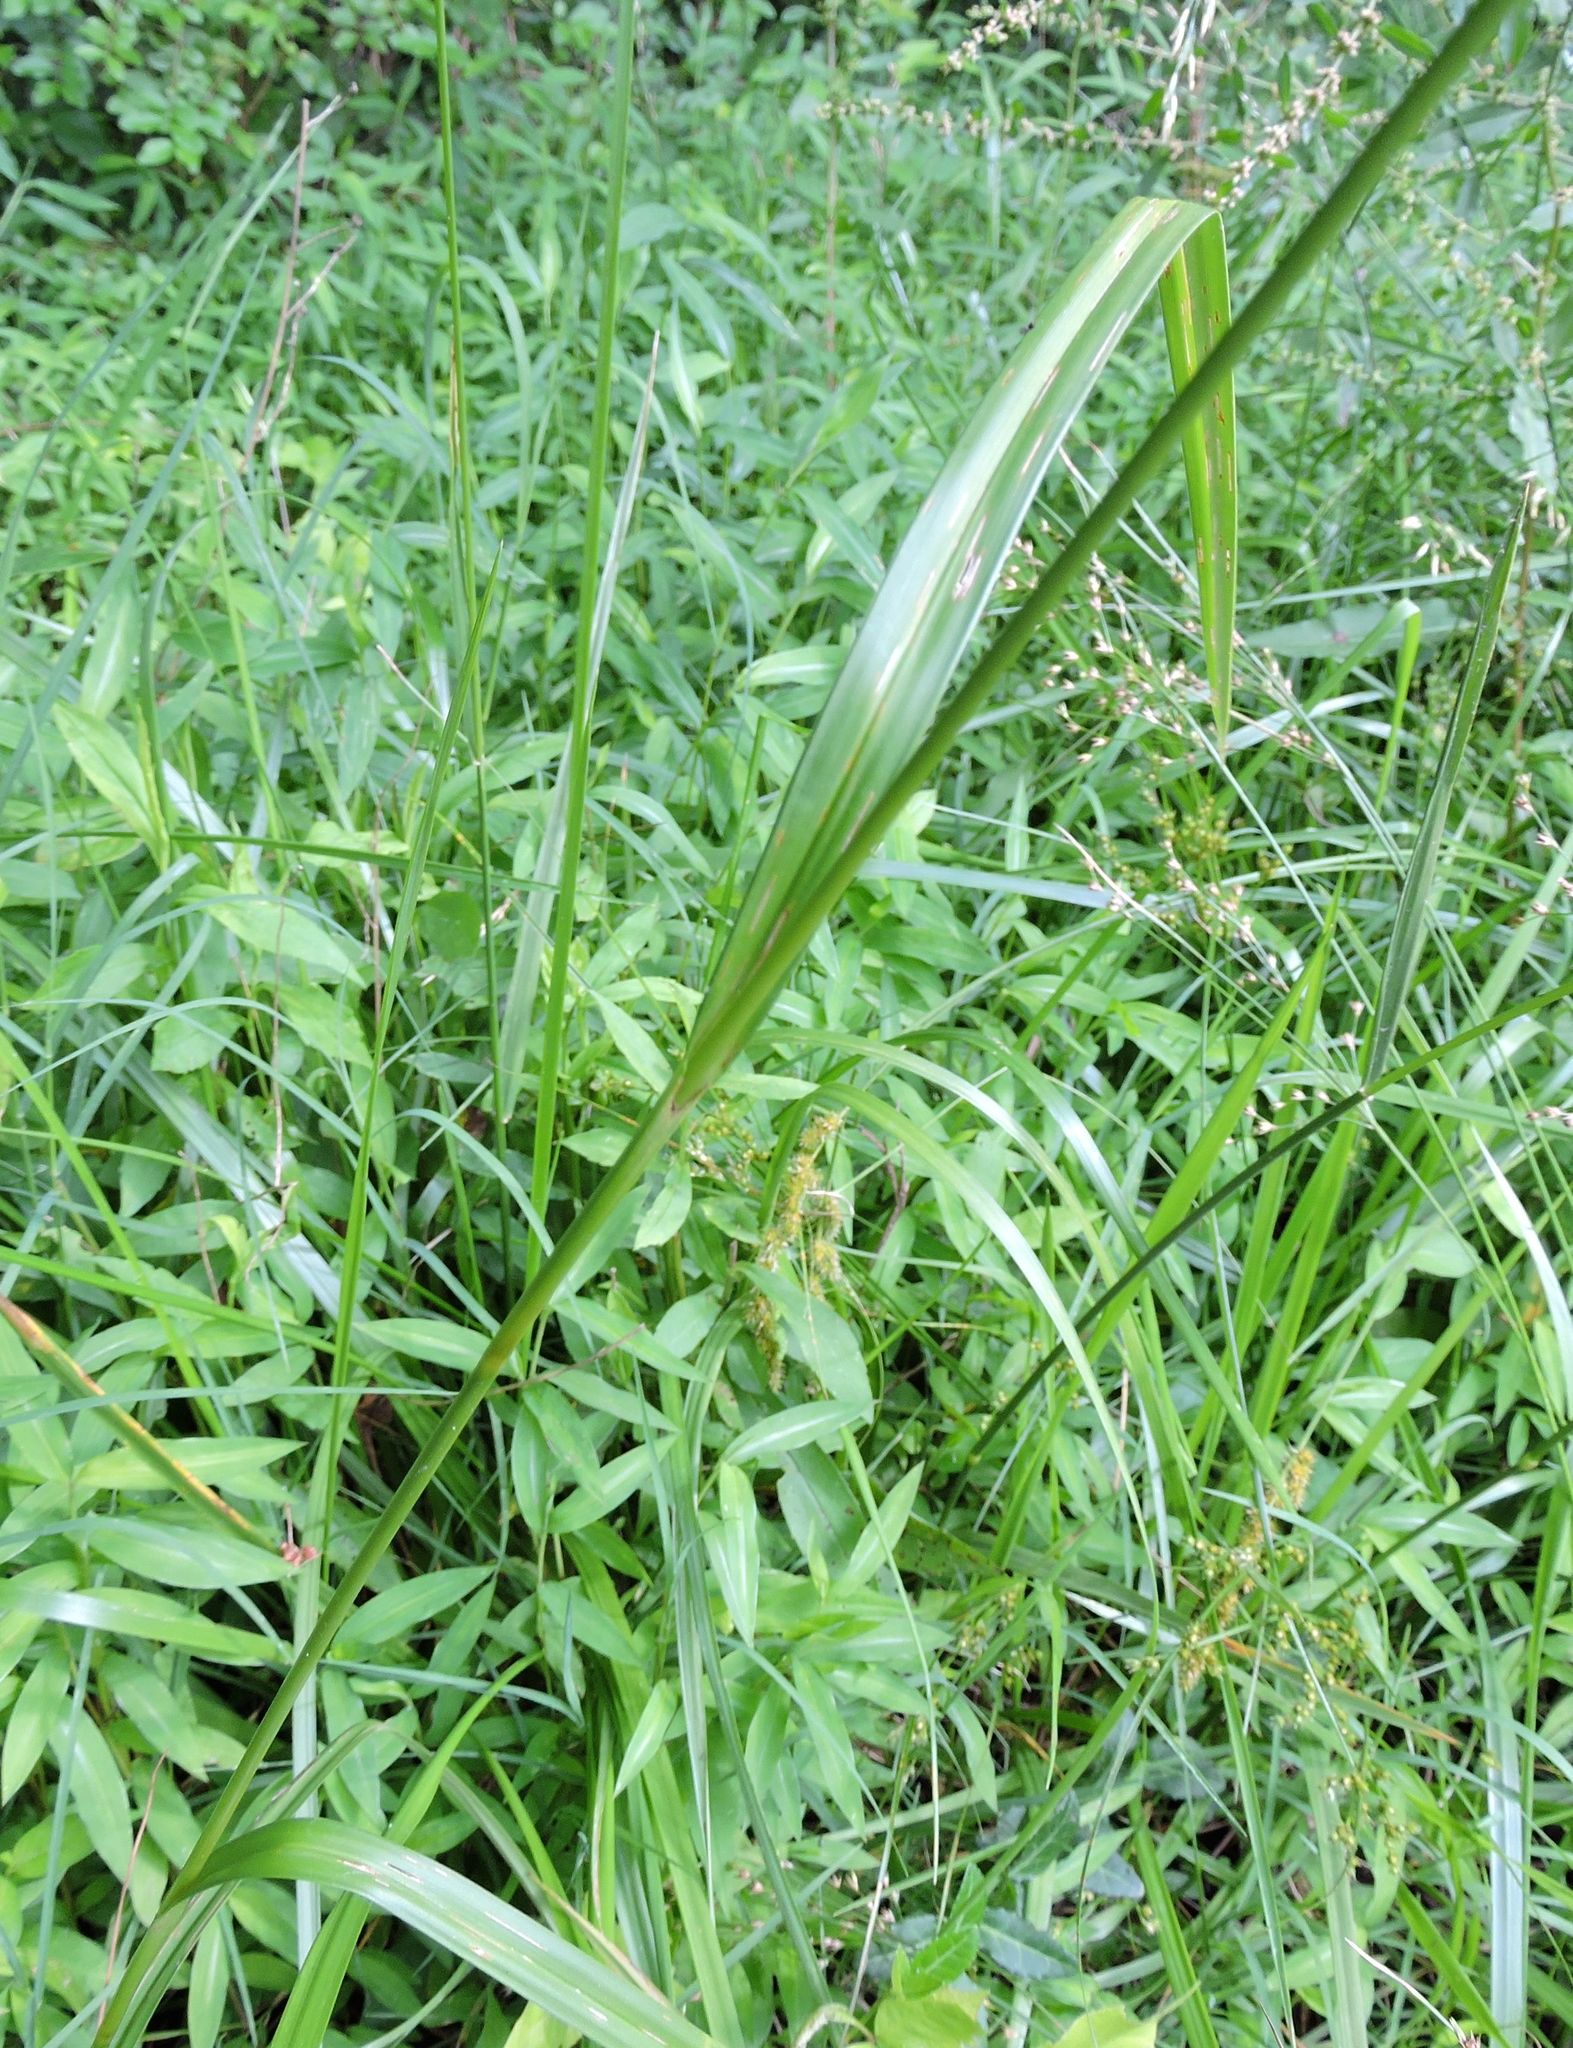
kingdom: Plantae
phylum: Tracheophyta
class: Liliopsida
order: Poales
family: Cyperaceae
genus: Scirpus
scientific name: Scirpus atrovirens
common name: Black bulrush
